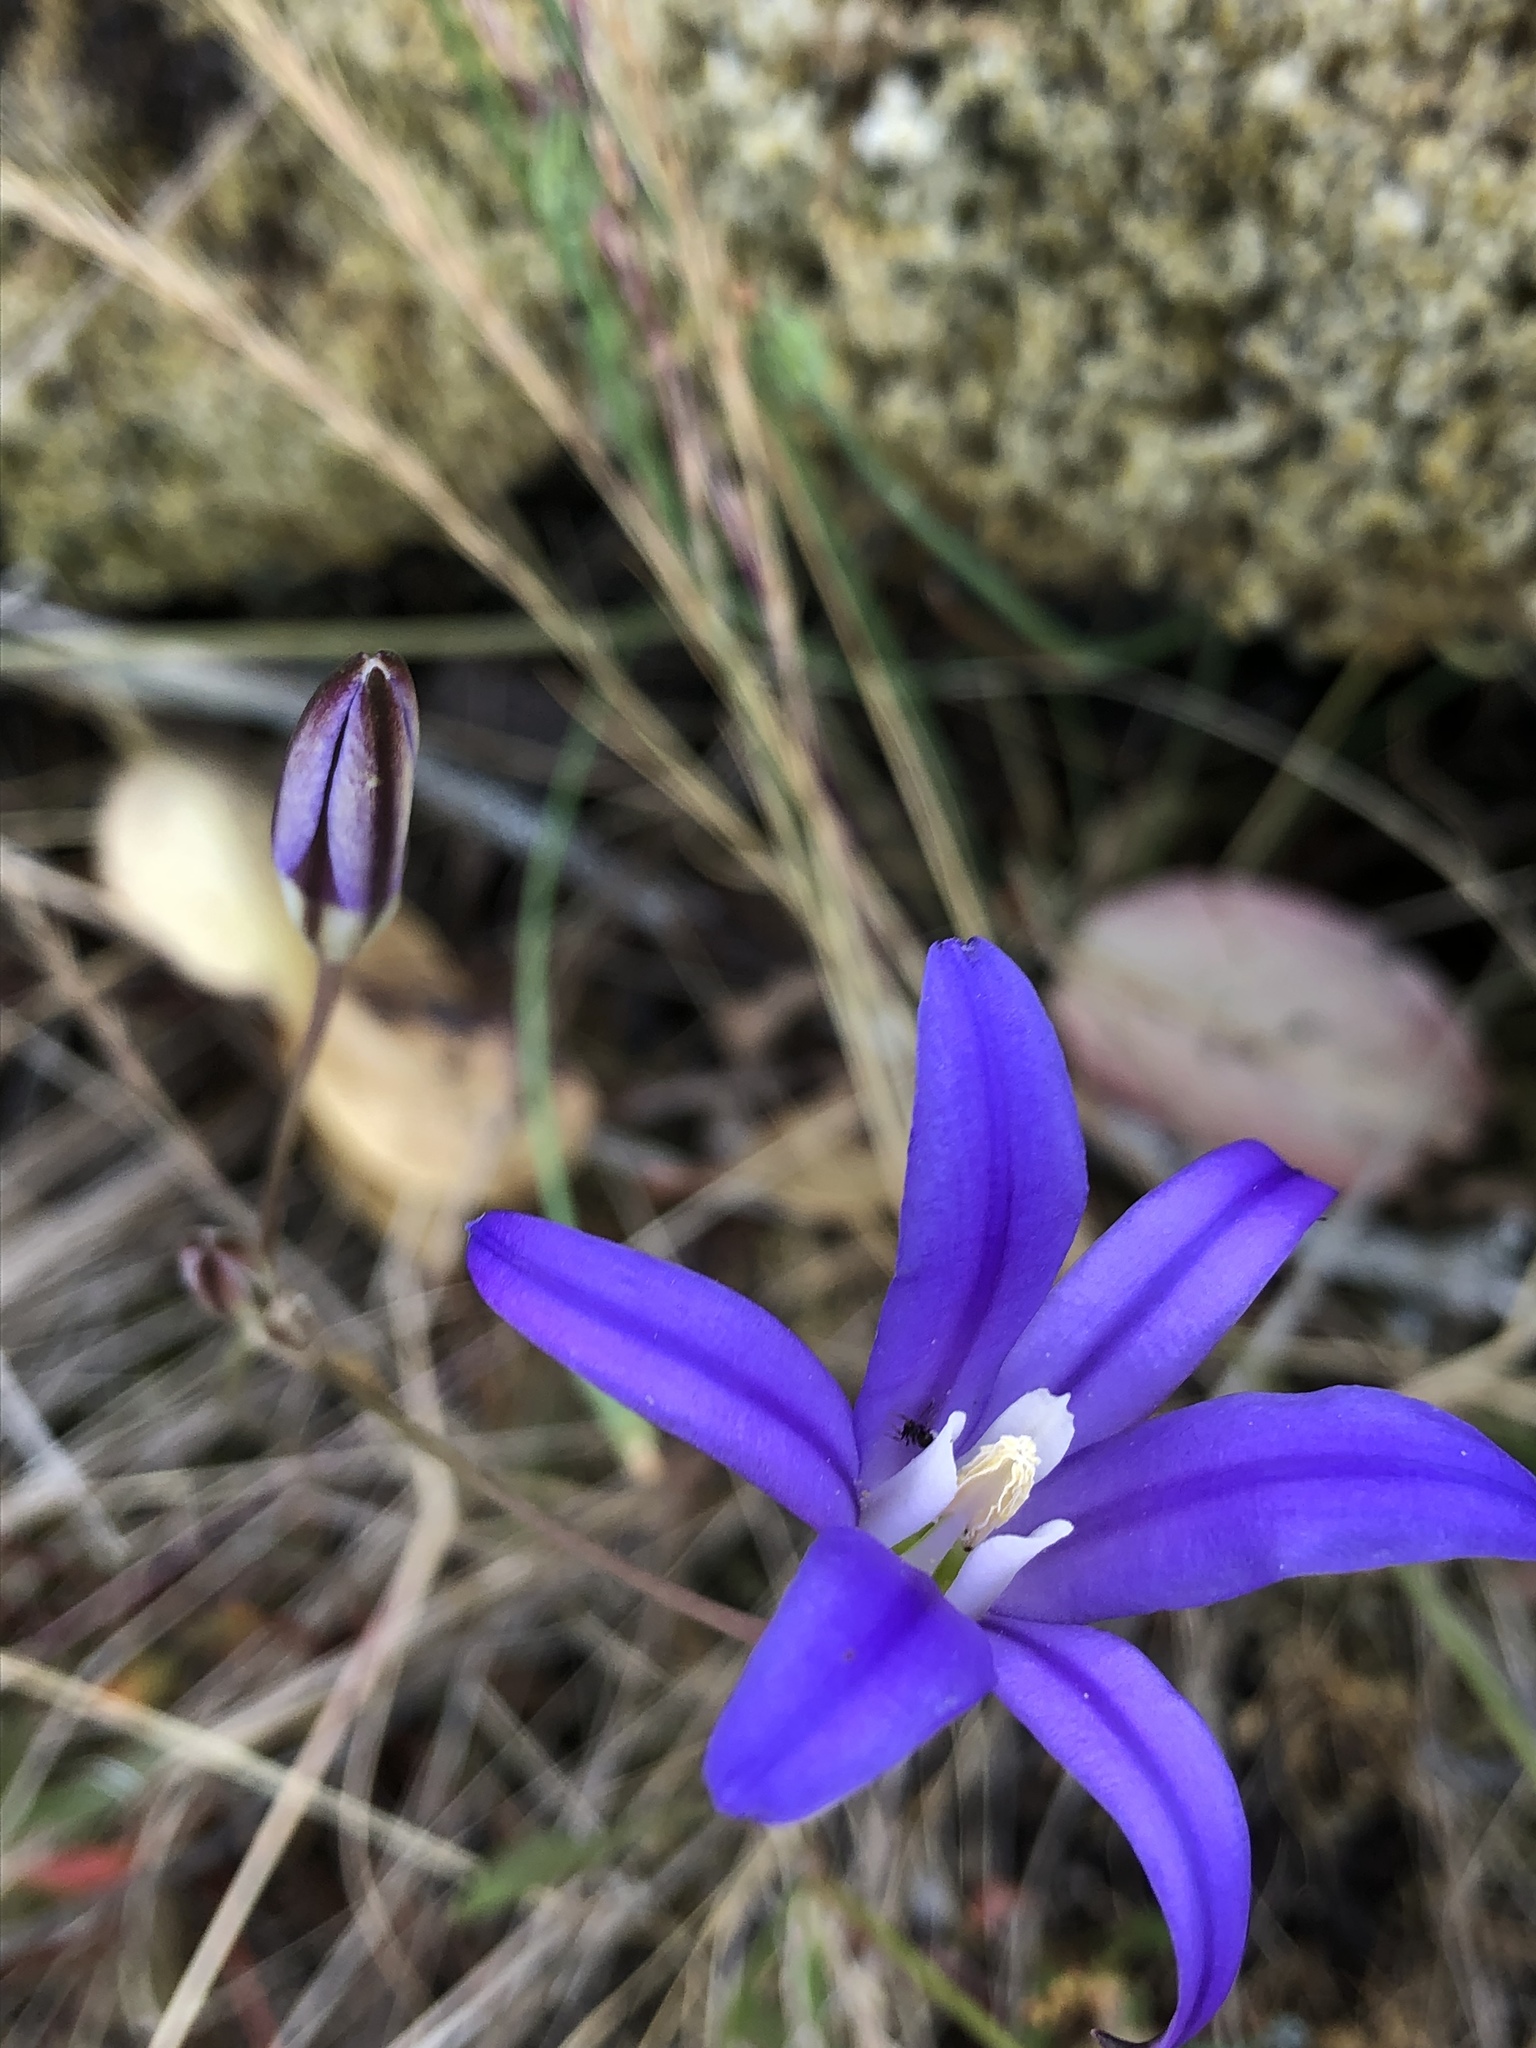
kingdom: Plantae
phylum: Tracheophyta
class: Liliopsida
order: Asparagales
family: Asparagaceae
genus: Brodiaea
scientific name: Brodiaea coronaria
